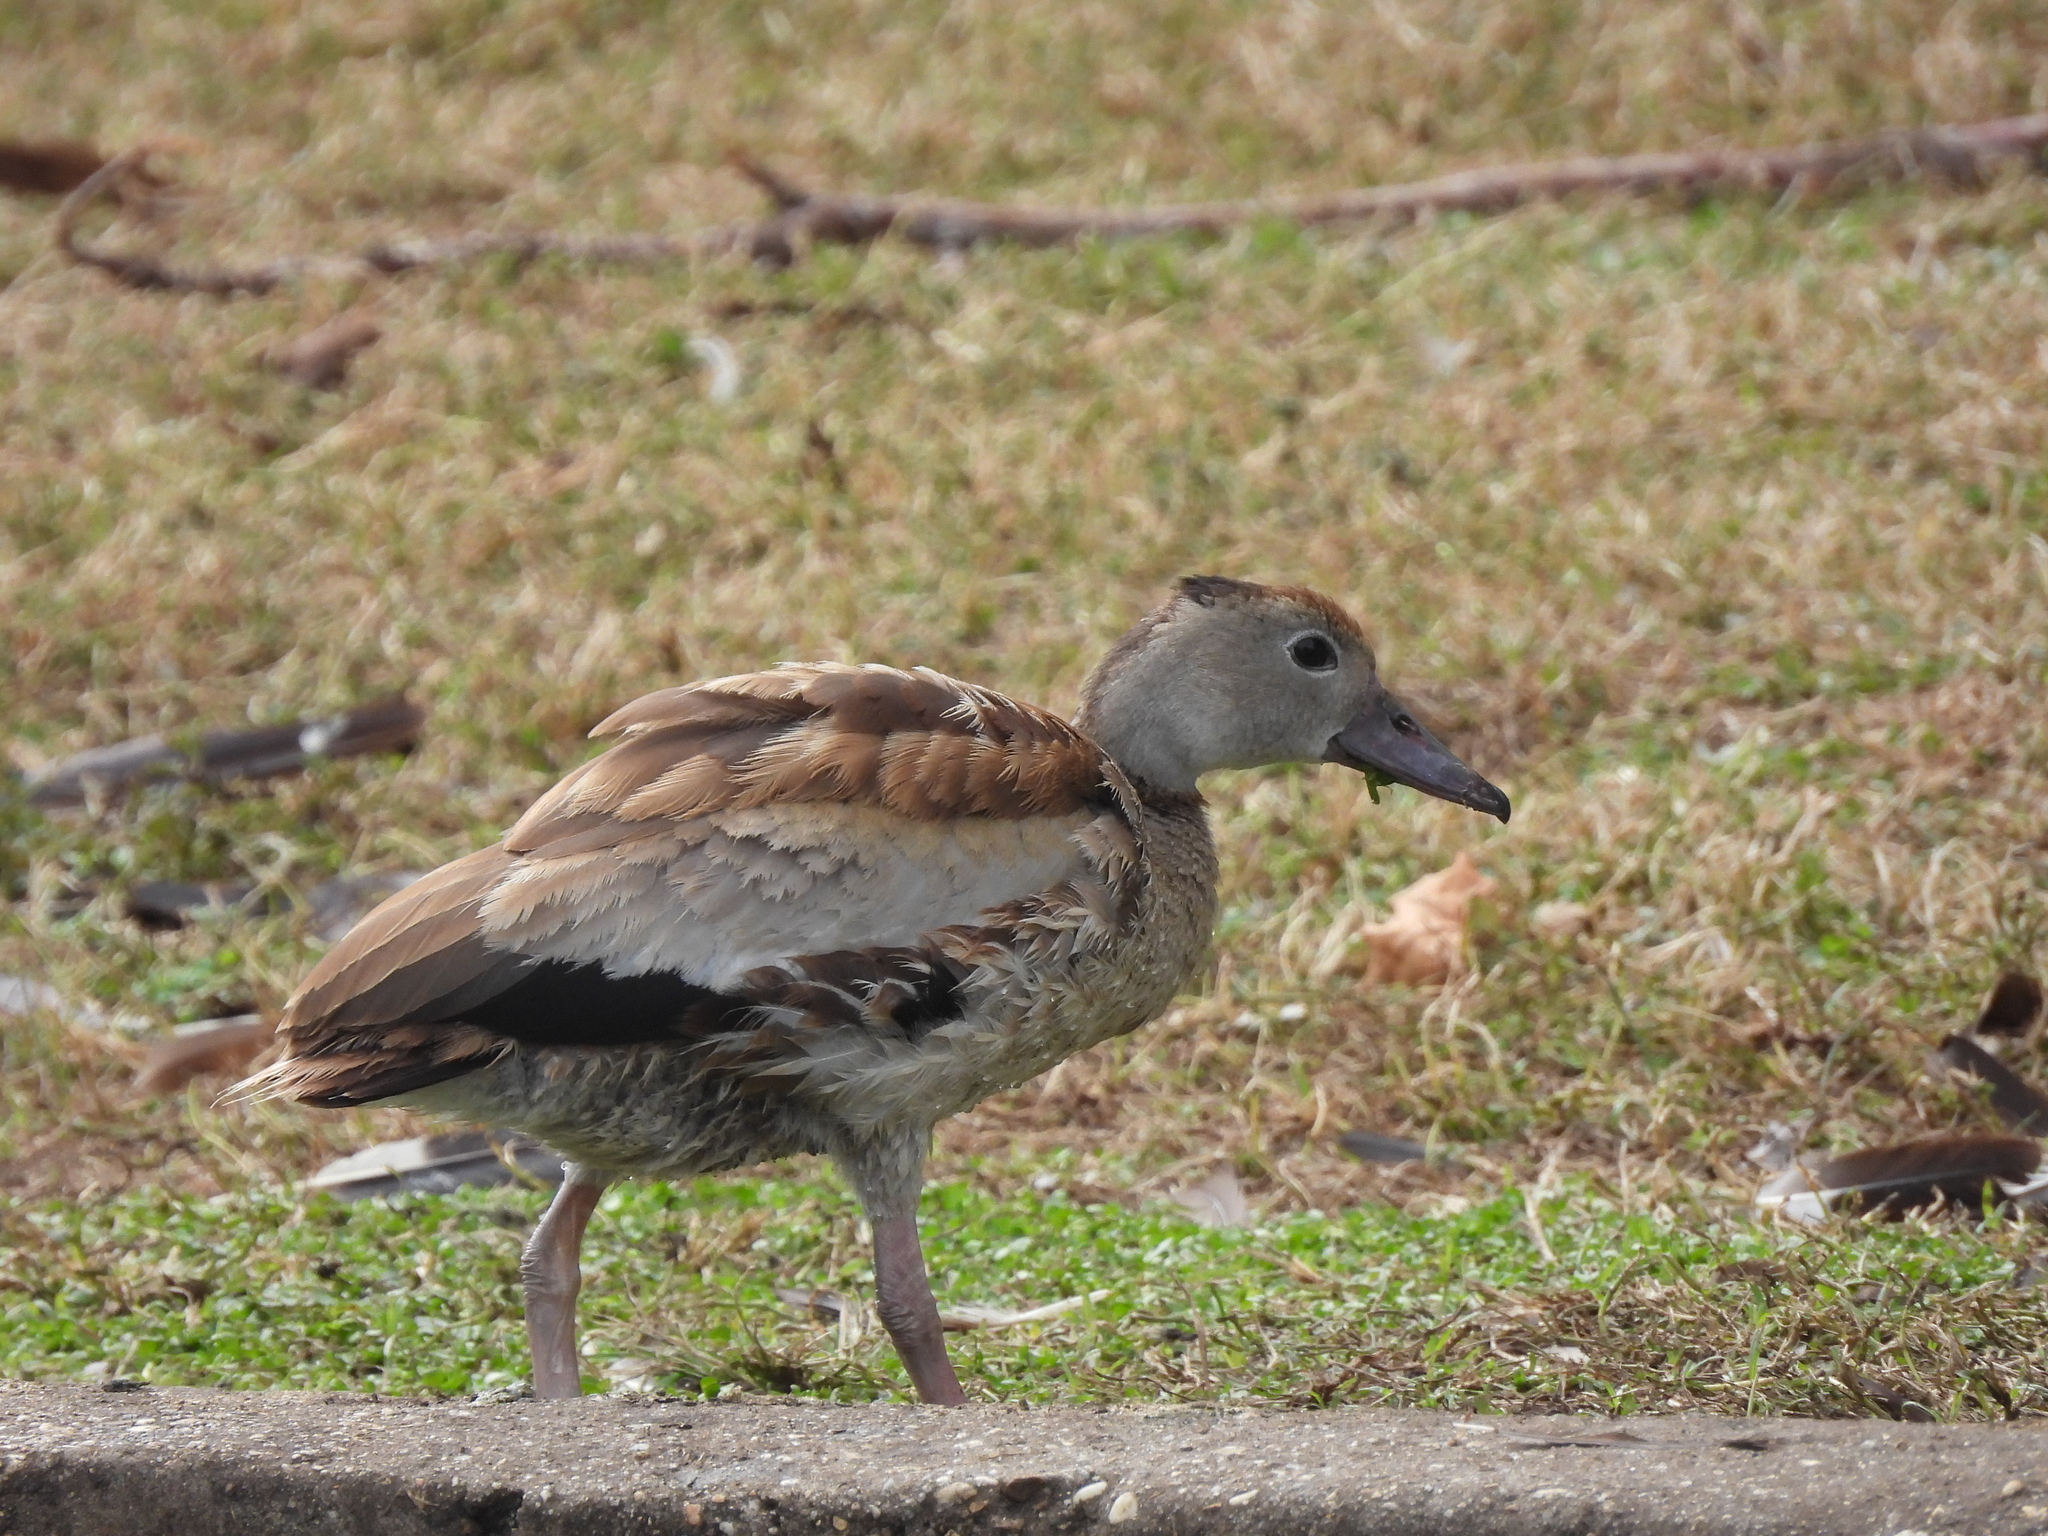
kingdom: Animalia
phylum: Chordata
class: Aves
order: Anseriformes
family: Anatidae
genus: Dendrocygna
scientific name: Dendrocygna autumnalis
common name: Black-bellied whistling duck
